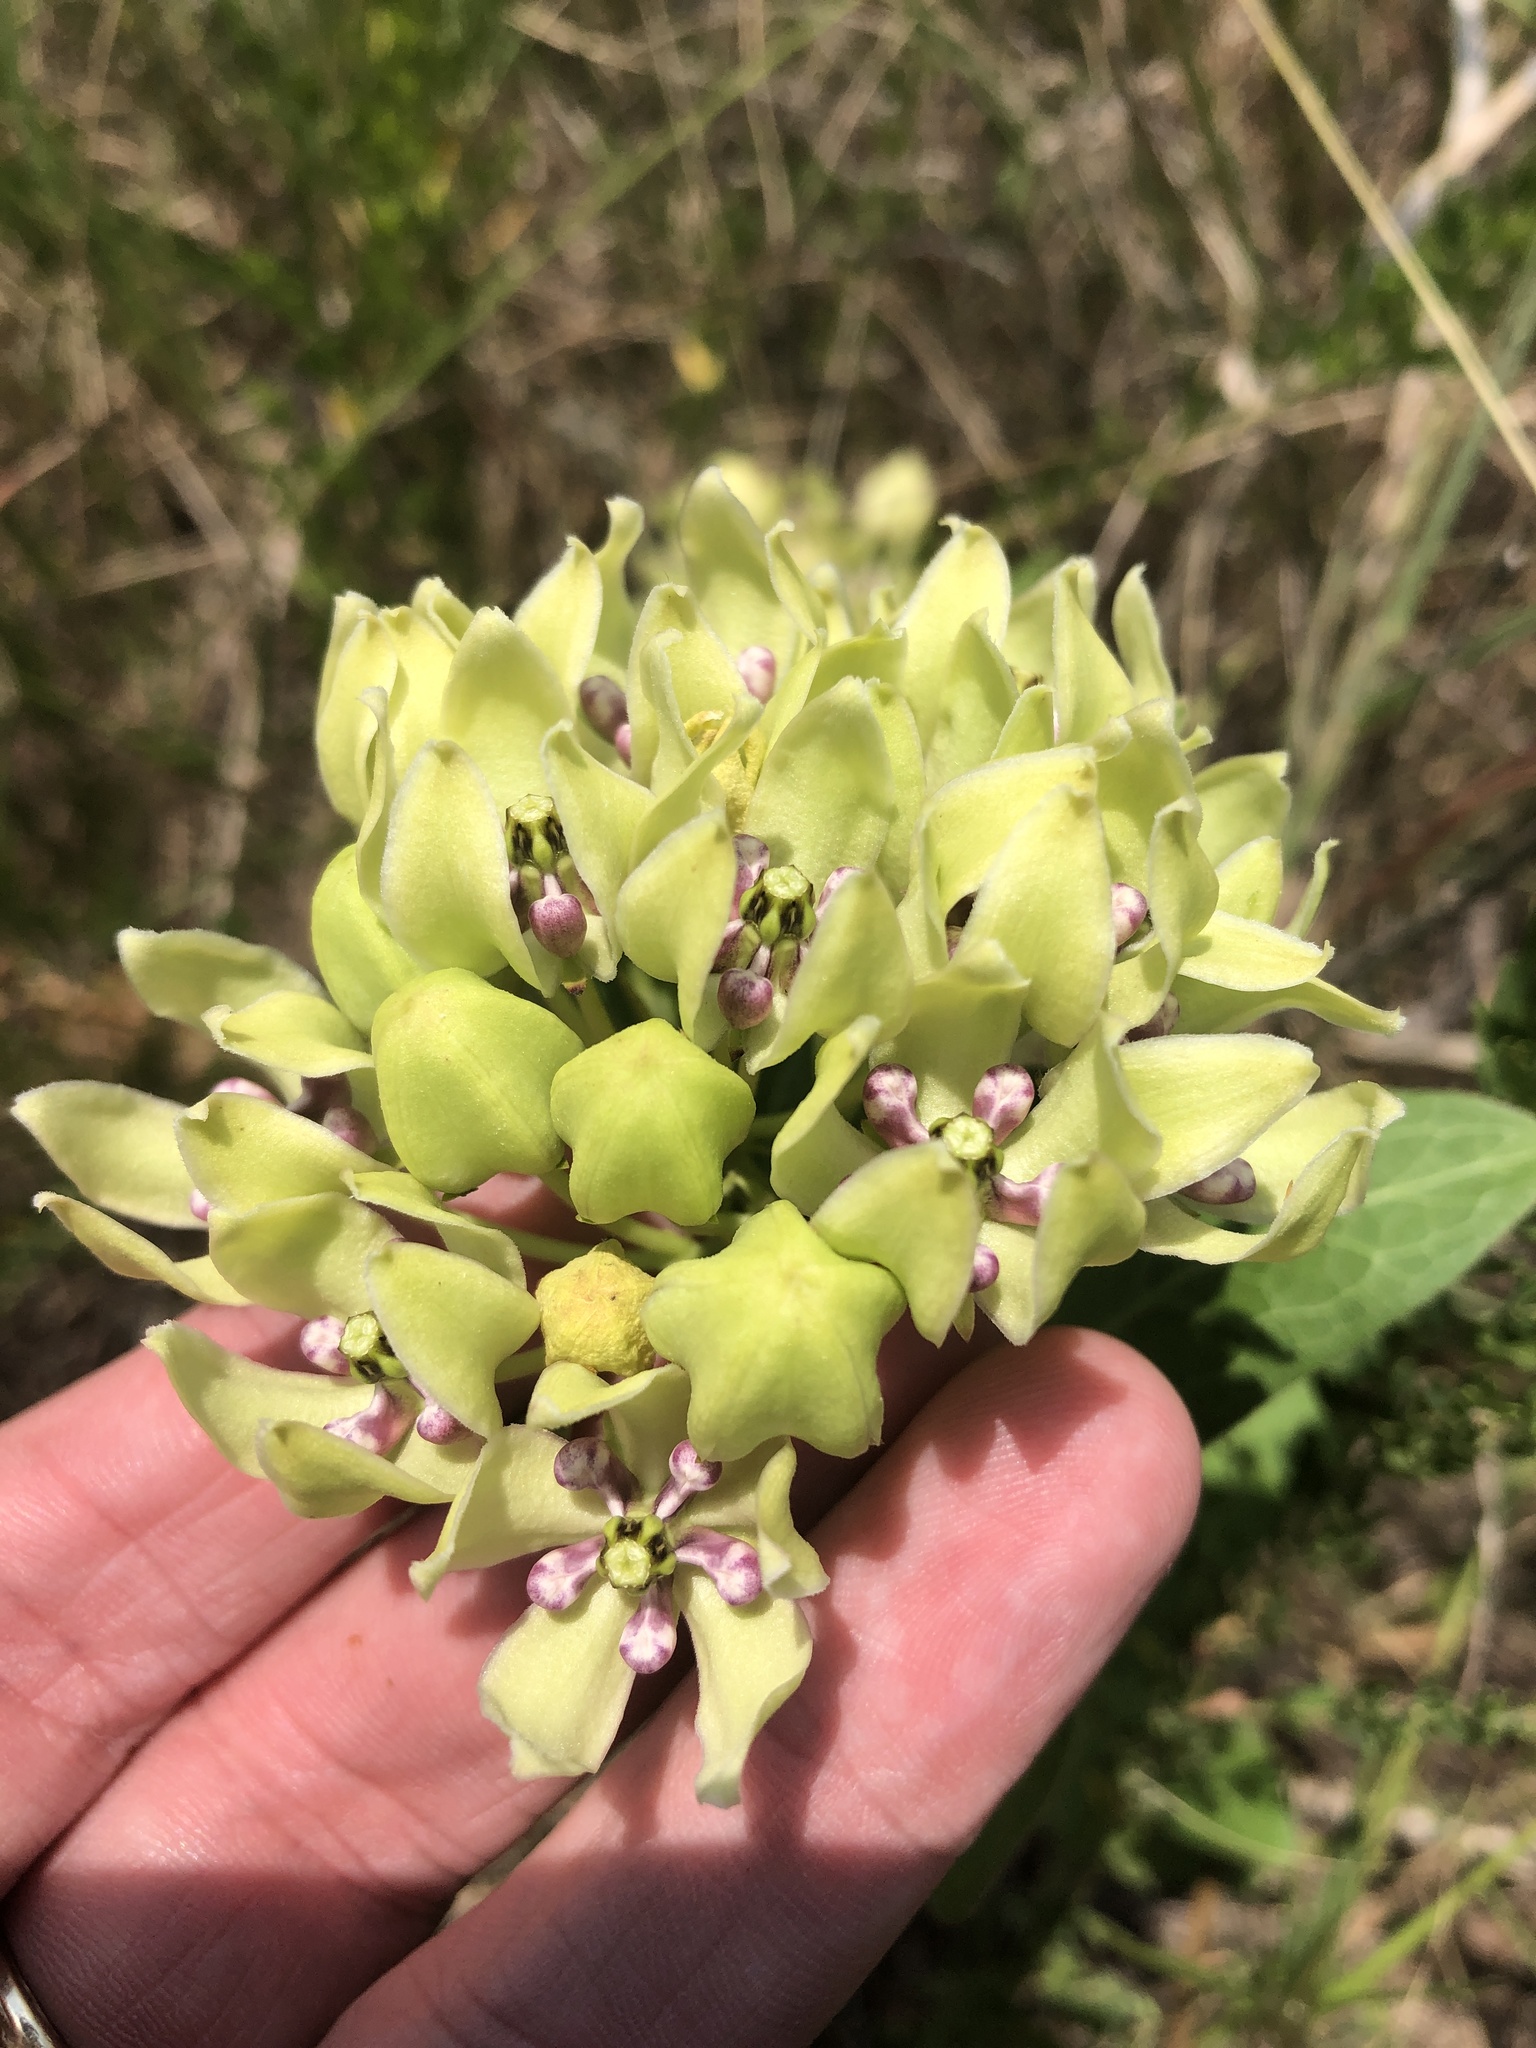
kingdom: Plantae
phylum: Tracheophyta
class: Magnoliopsida
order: Gentianales
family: Apocynaceae
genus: Asclepias
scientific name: Asclepias viridis
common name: Antelope-horns
